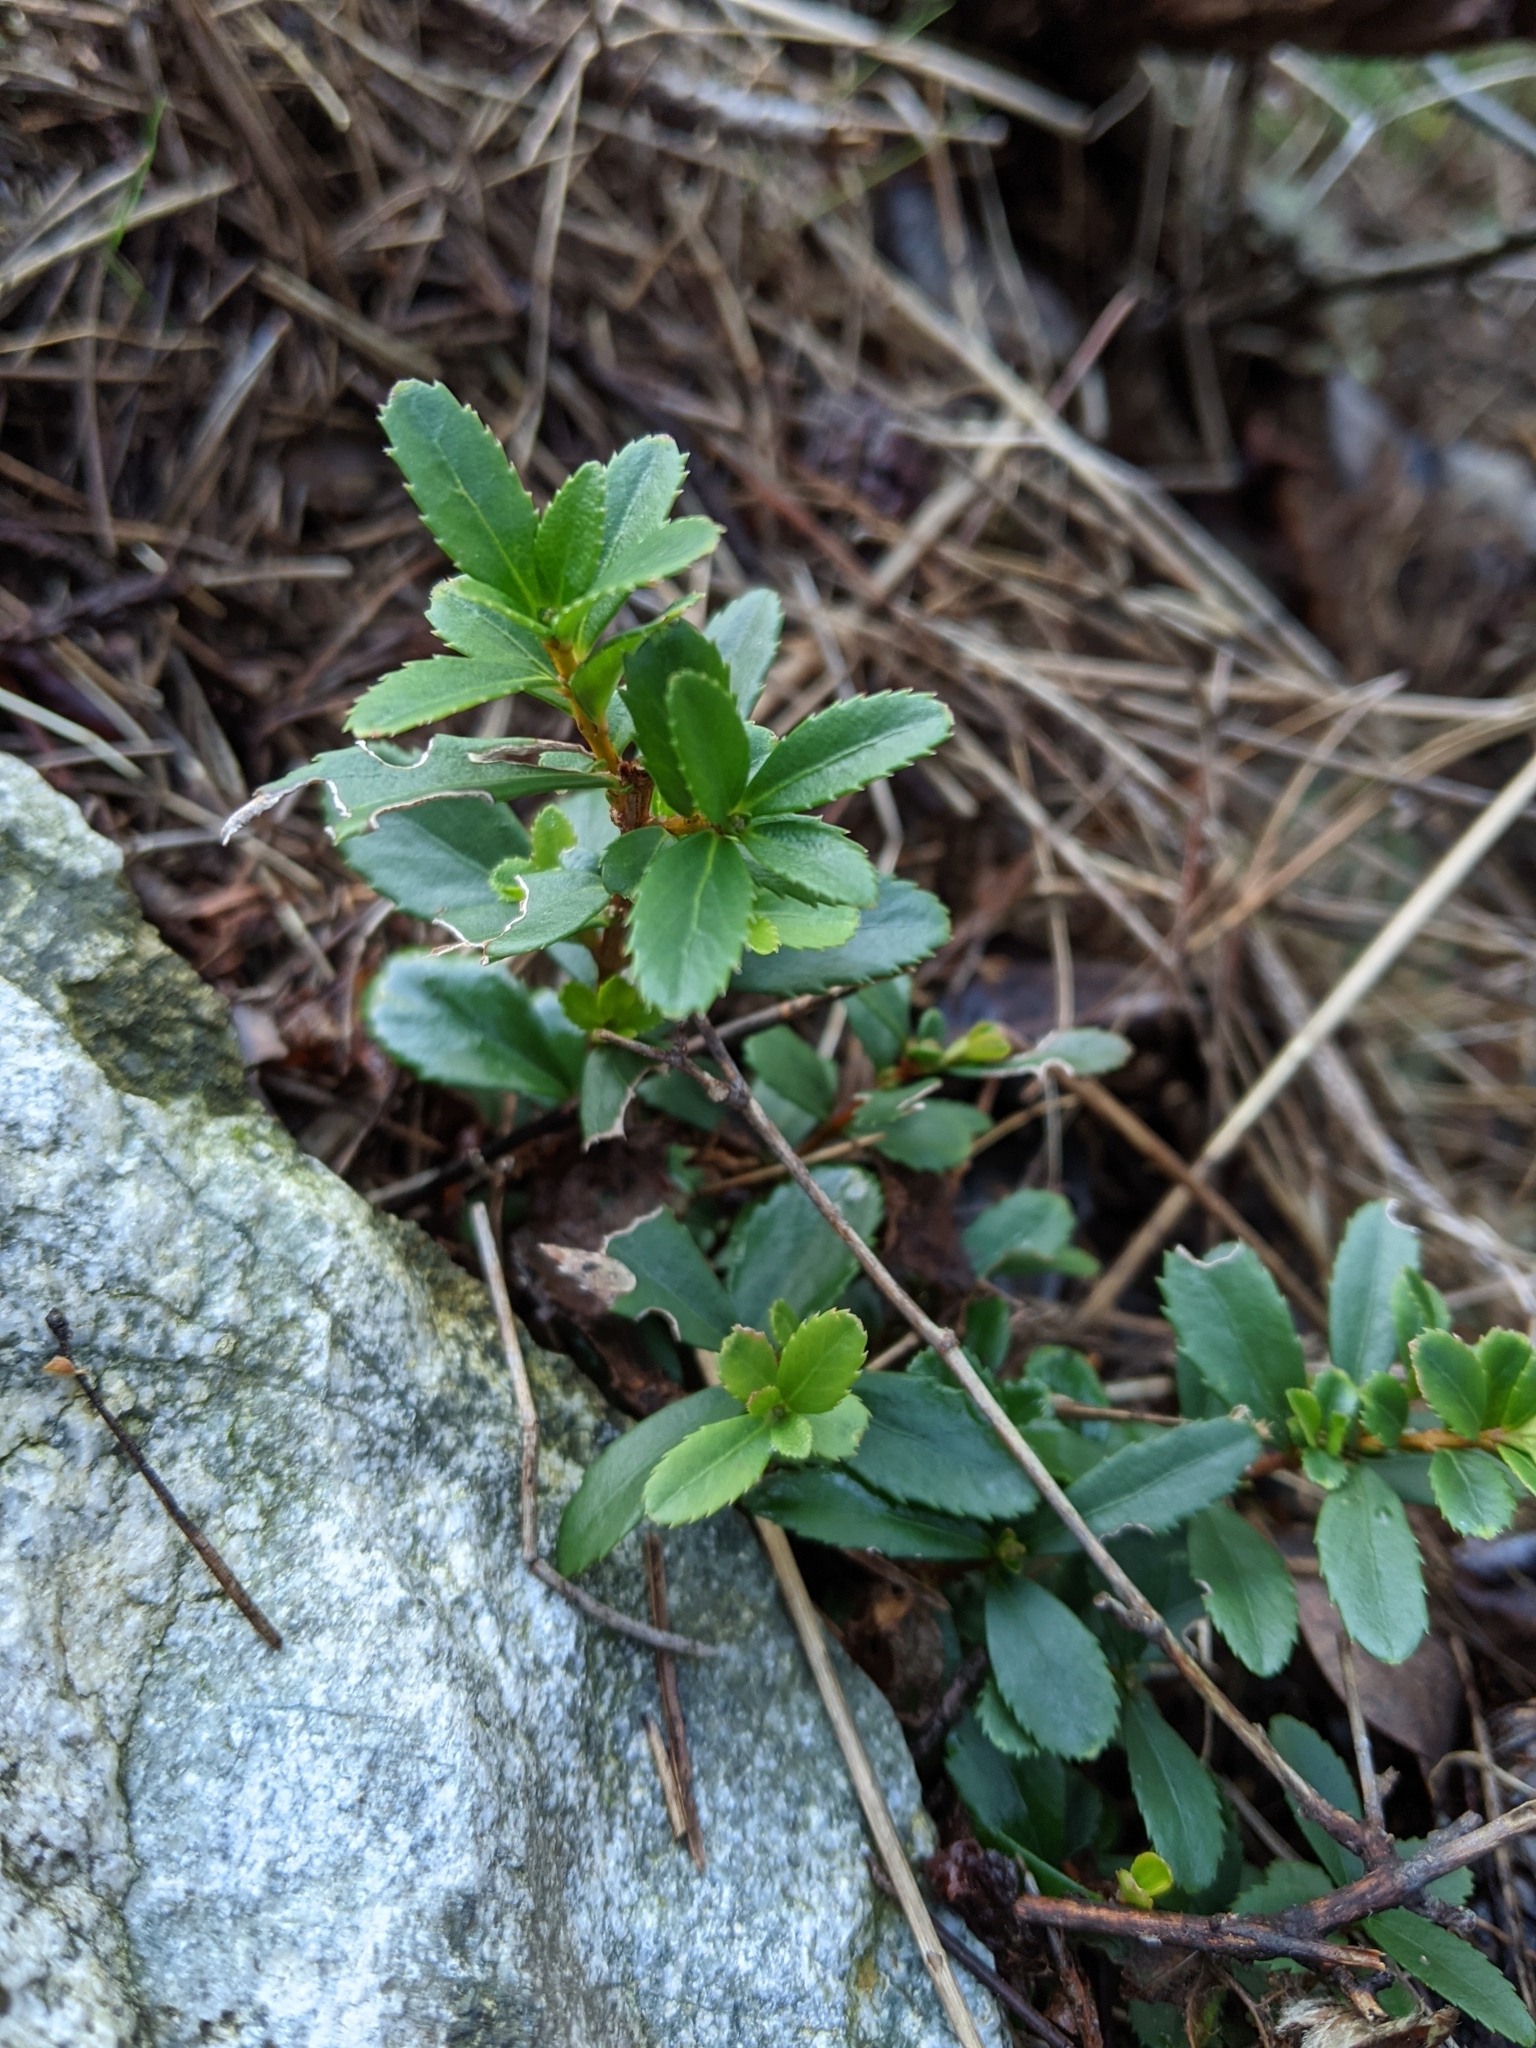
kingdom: Plantae
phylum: Tracheophyta
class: Magnoliopsida
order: Celastrales
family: Celastraceae
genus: Paxistima
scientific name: Paxistima myrsinites
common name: Mountain-lover
